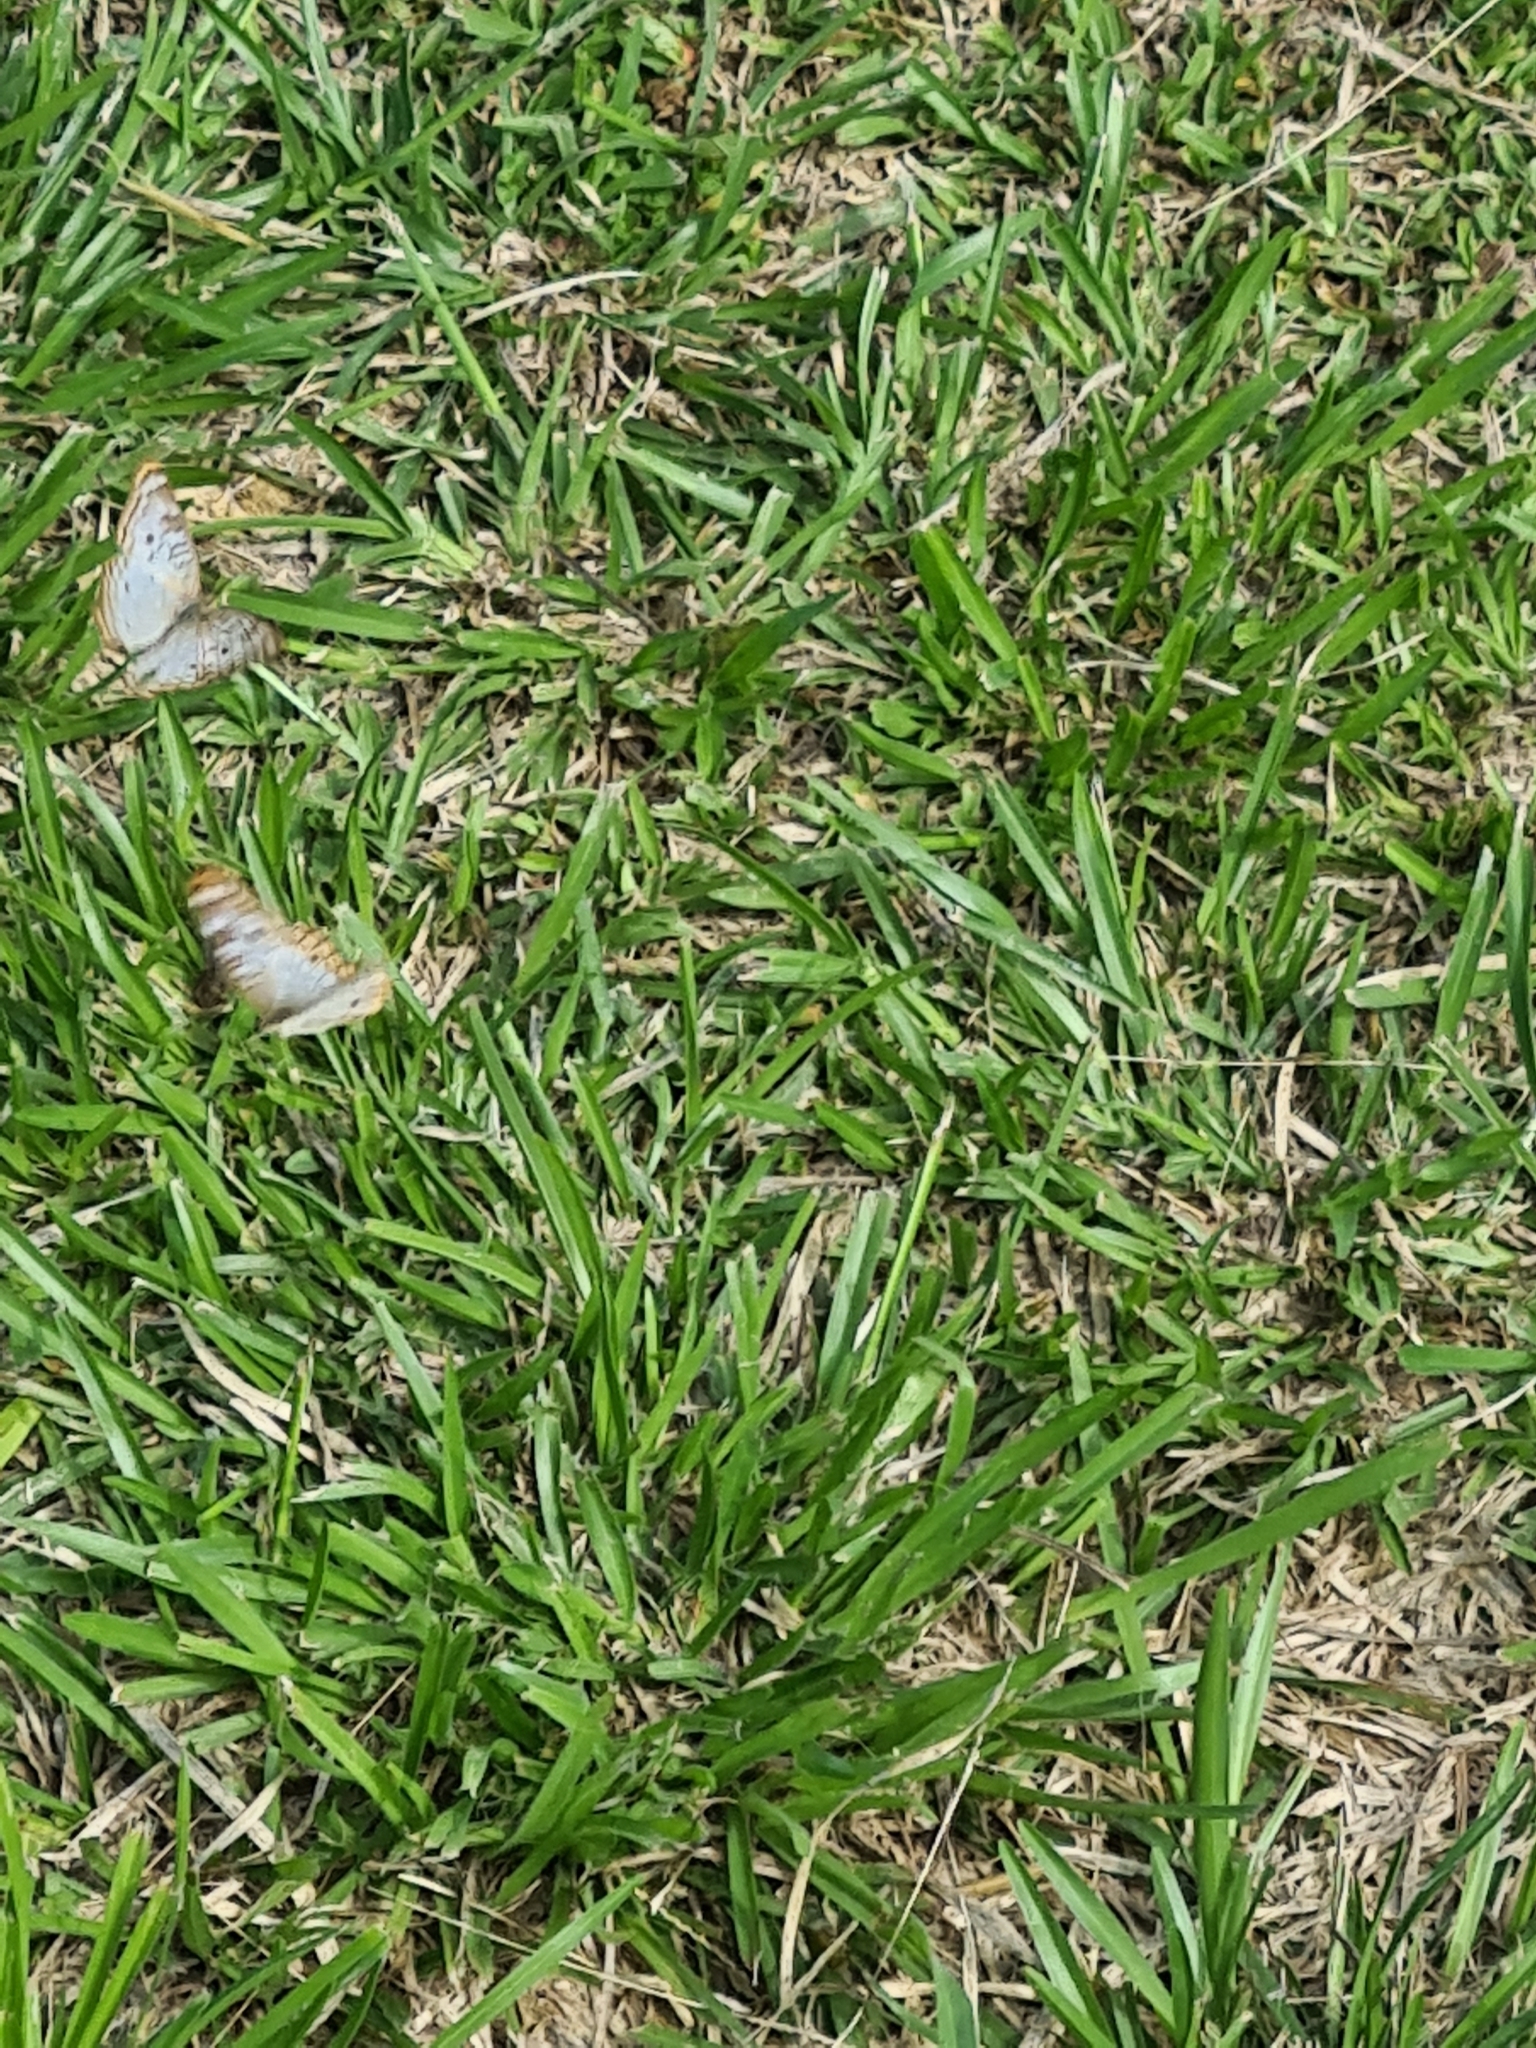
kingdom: Animalia
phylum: Arthropoda
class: Insecta
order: Lepidoptera
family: Nymphalidae
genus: Anartia
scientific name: Anartia jatrophae
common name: White peacock
